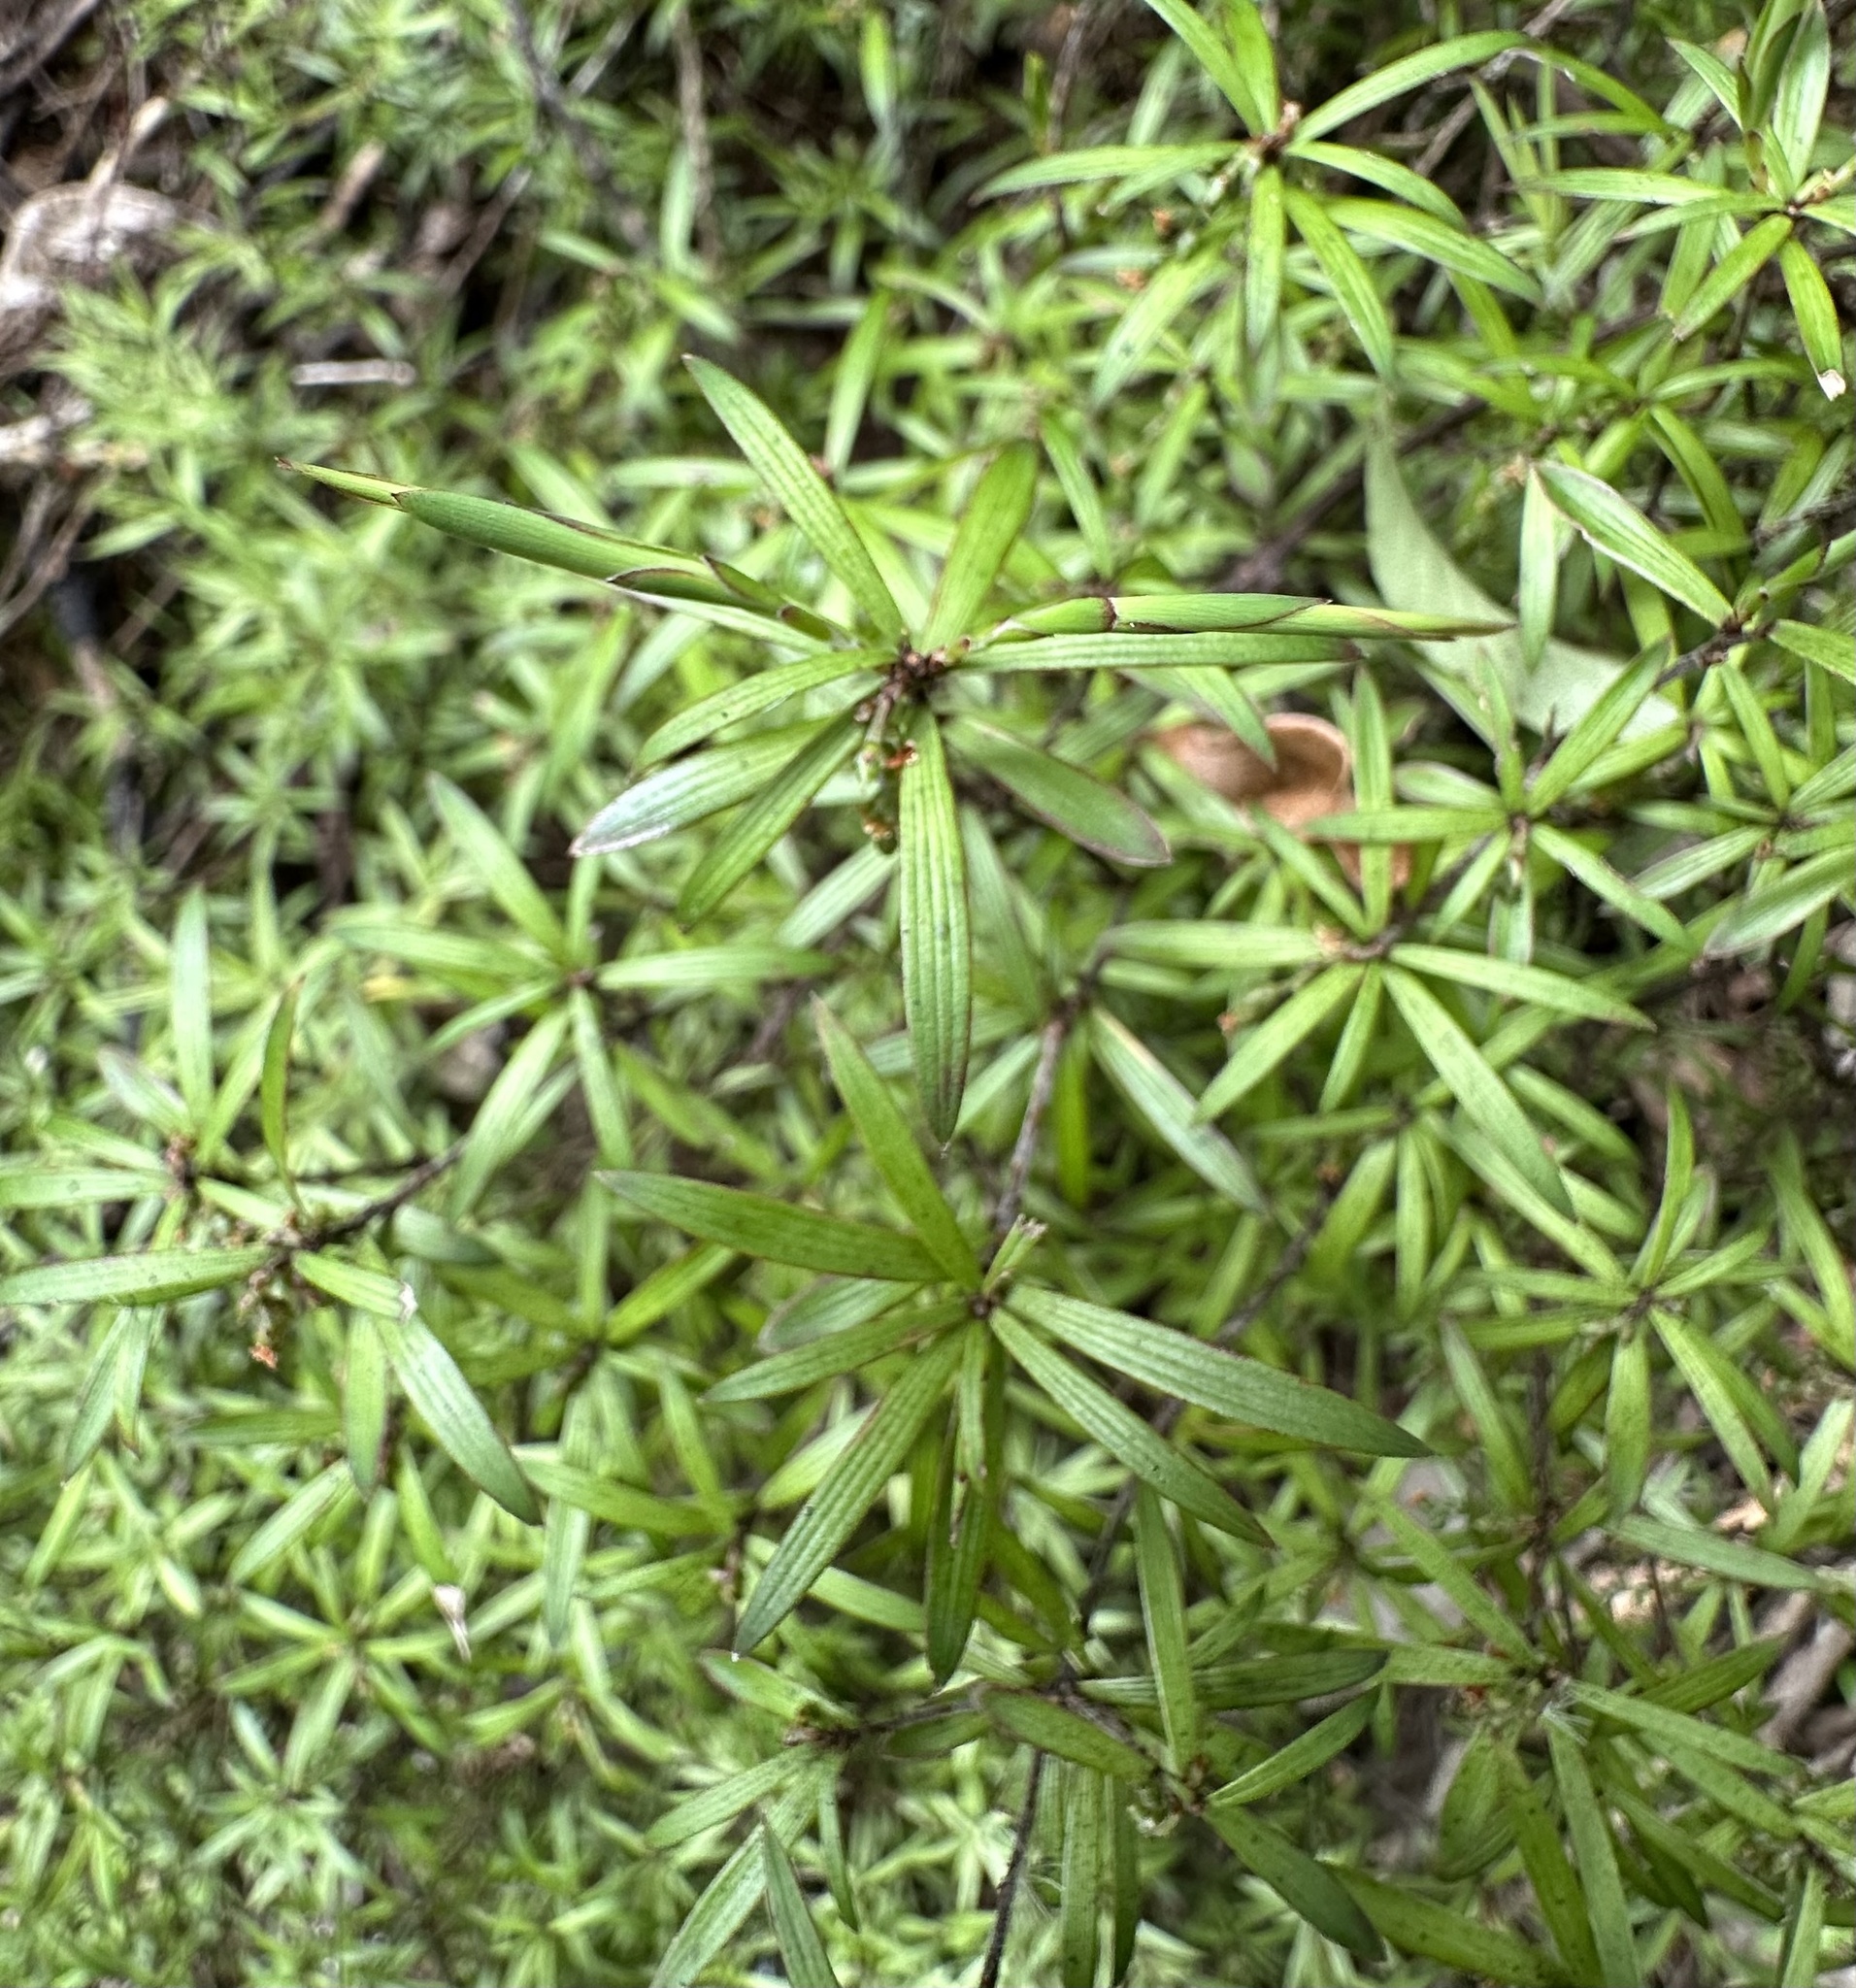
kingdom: Plantae
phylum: Tracheophyta
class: Magnoliopsida
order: Ericales
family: Ericaceae
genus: Leucopogon
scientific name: Leucopogon fasciculatus
